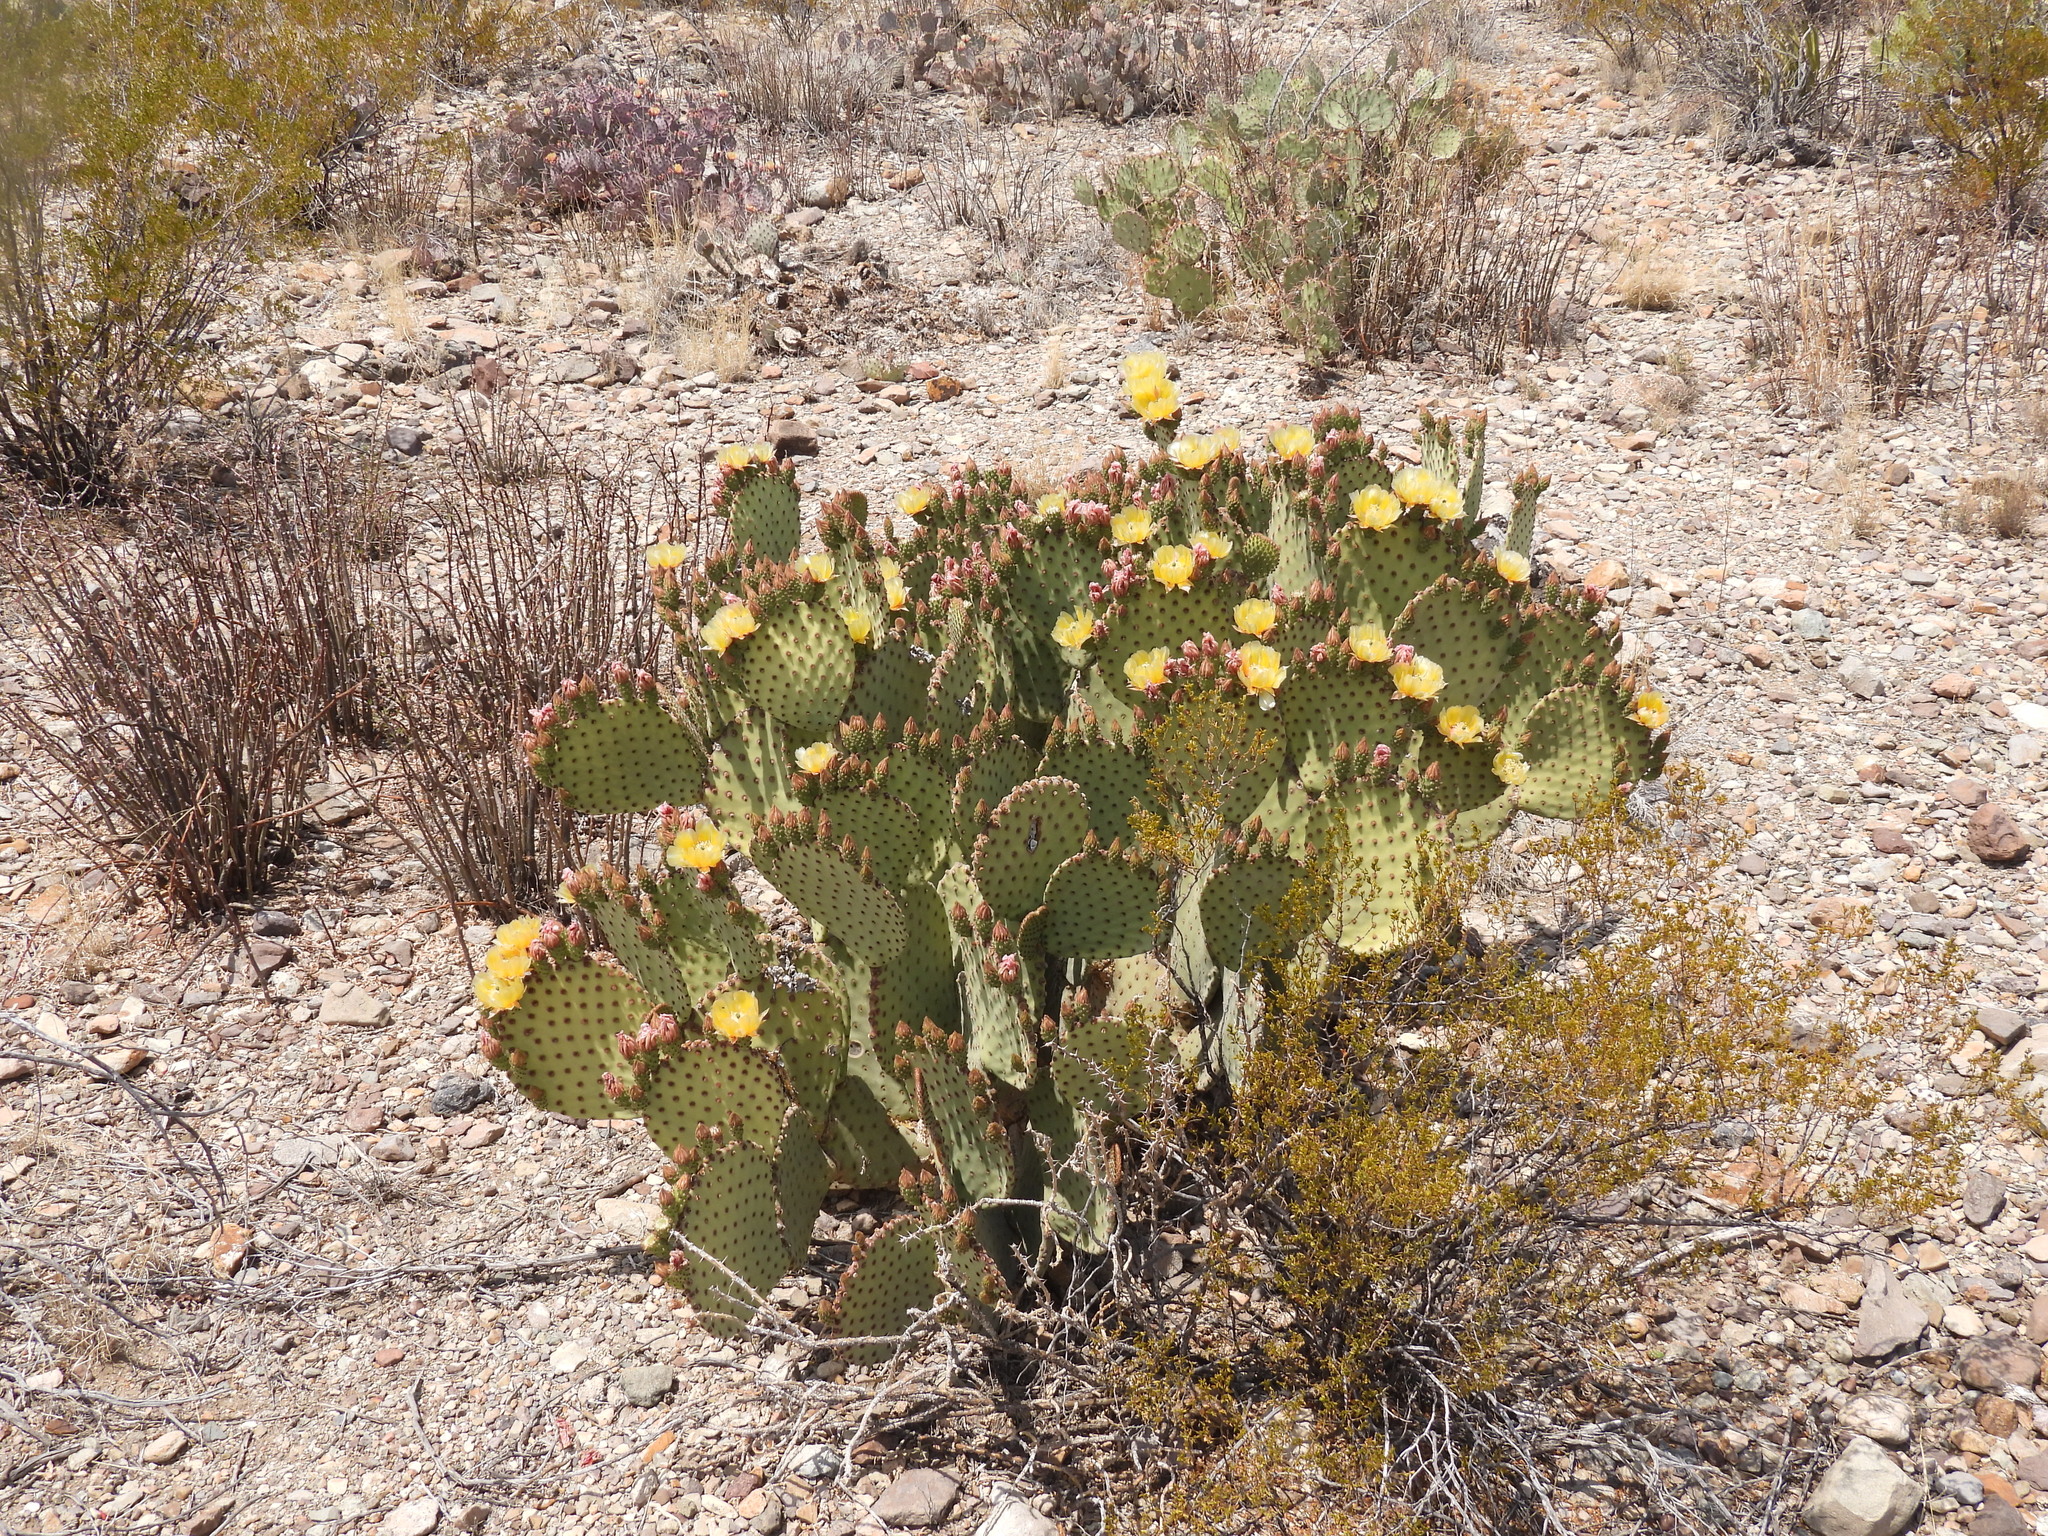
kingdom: Plantae
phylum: Tracheophyta
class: Magnoliopsida
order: Caryophyllales
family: Cactaceae
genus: Opuntia
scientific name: Opuntia rufida
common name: Blind pricklypear
